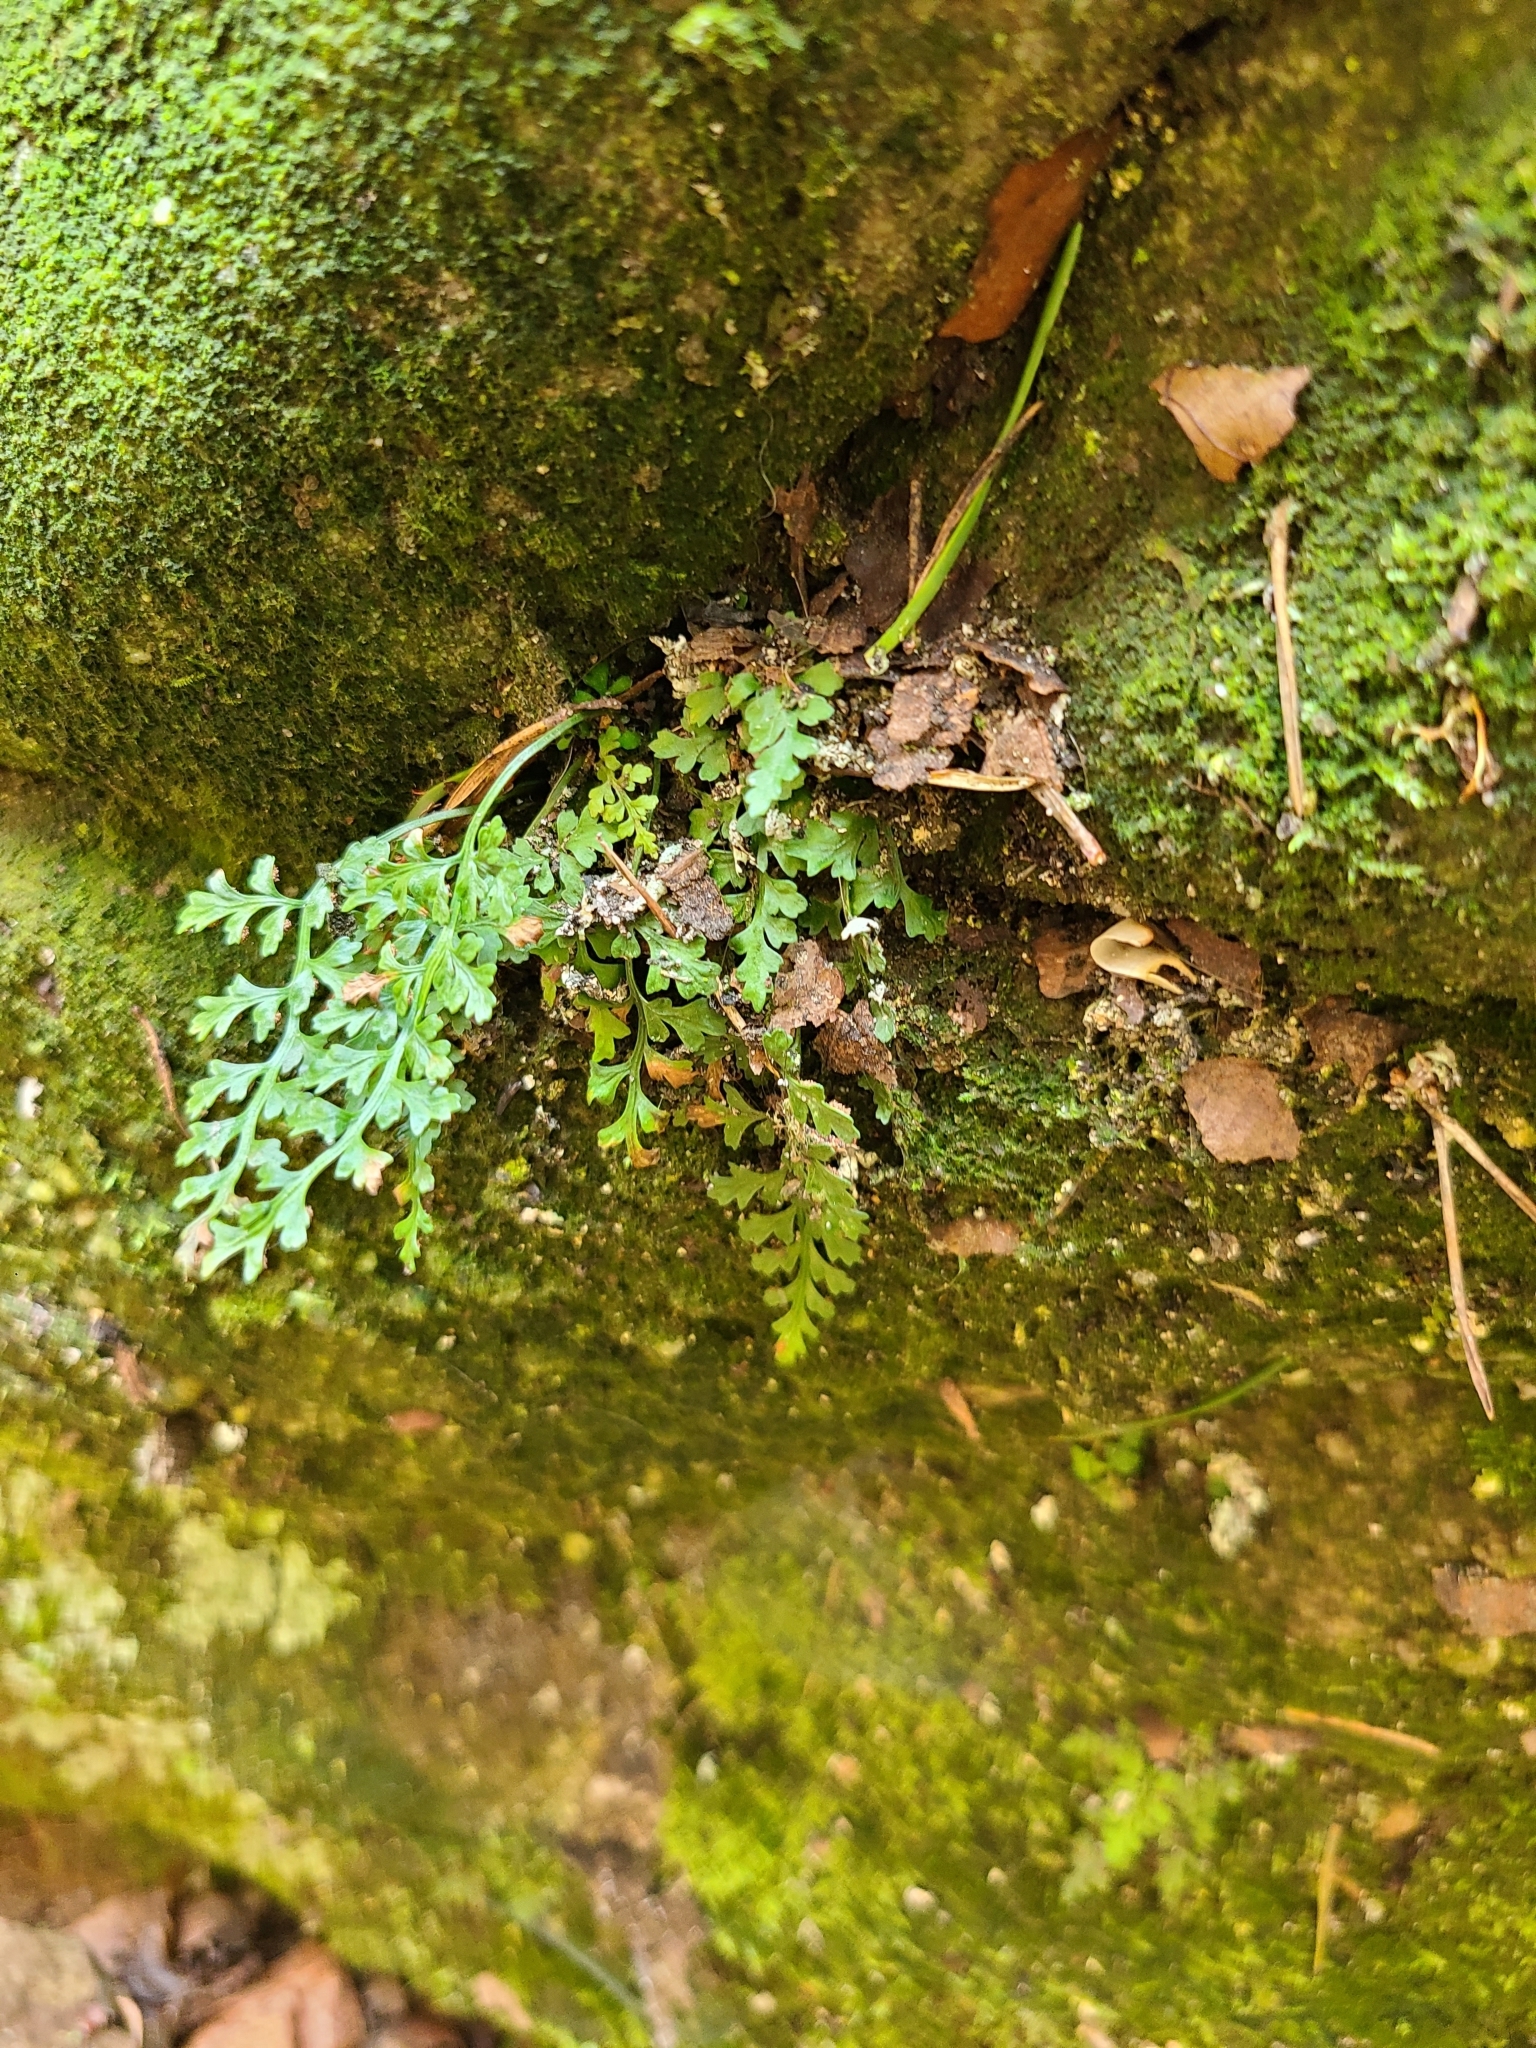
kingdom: Plantae
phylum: Tracheophyta
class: Polypodiopsida
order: Polypodiales
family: Aspleniaceae
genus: Asplenium
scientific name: Asplenium montanum
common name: Mountain spleenwort
